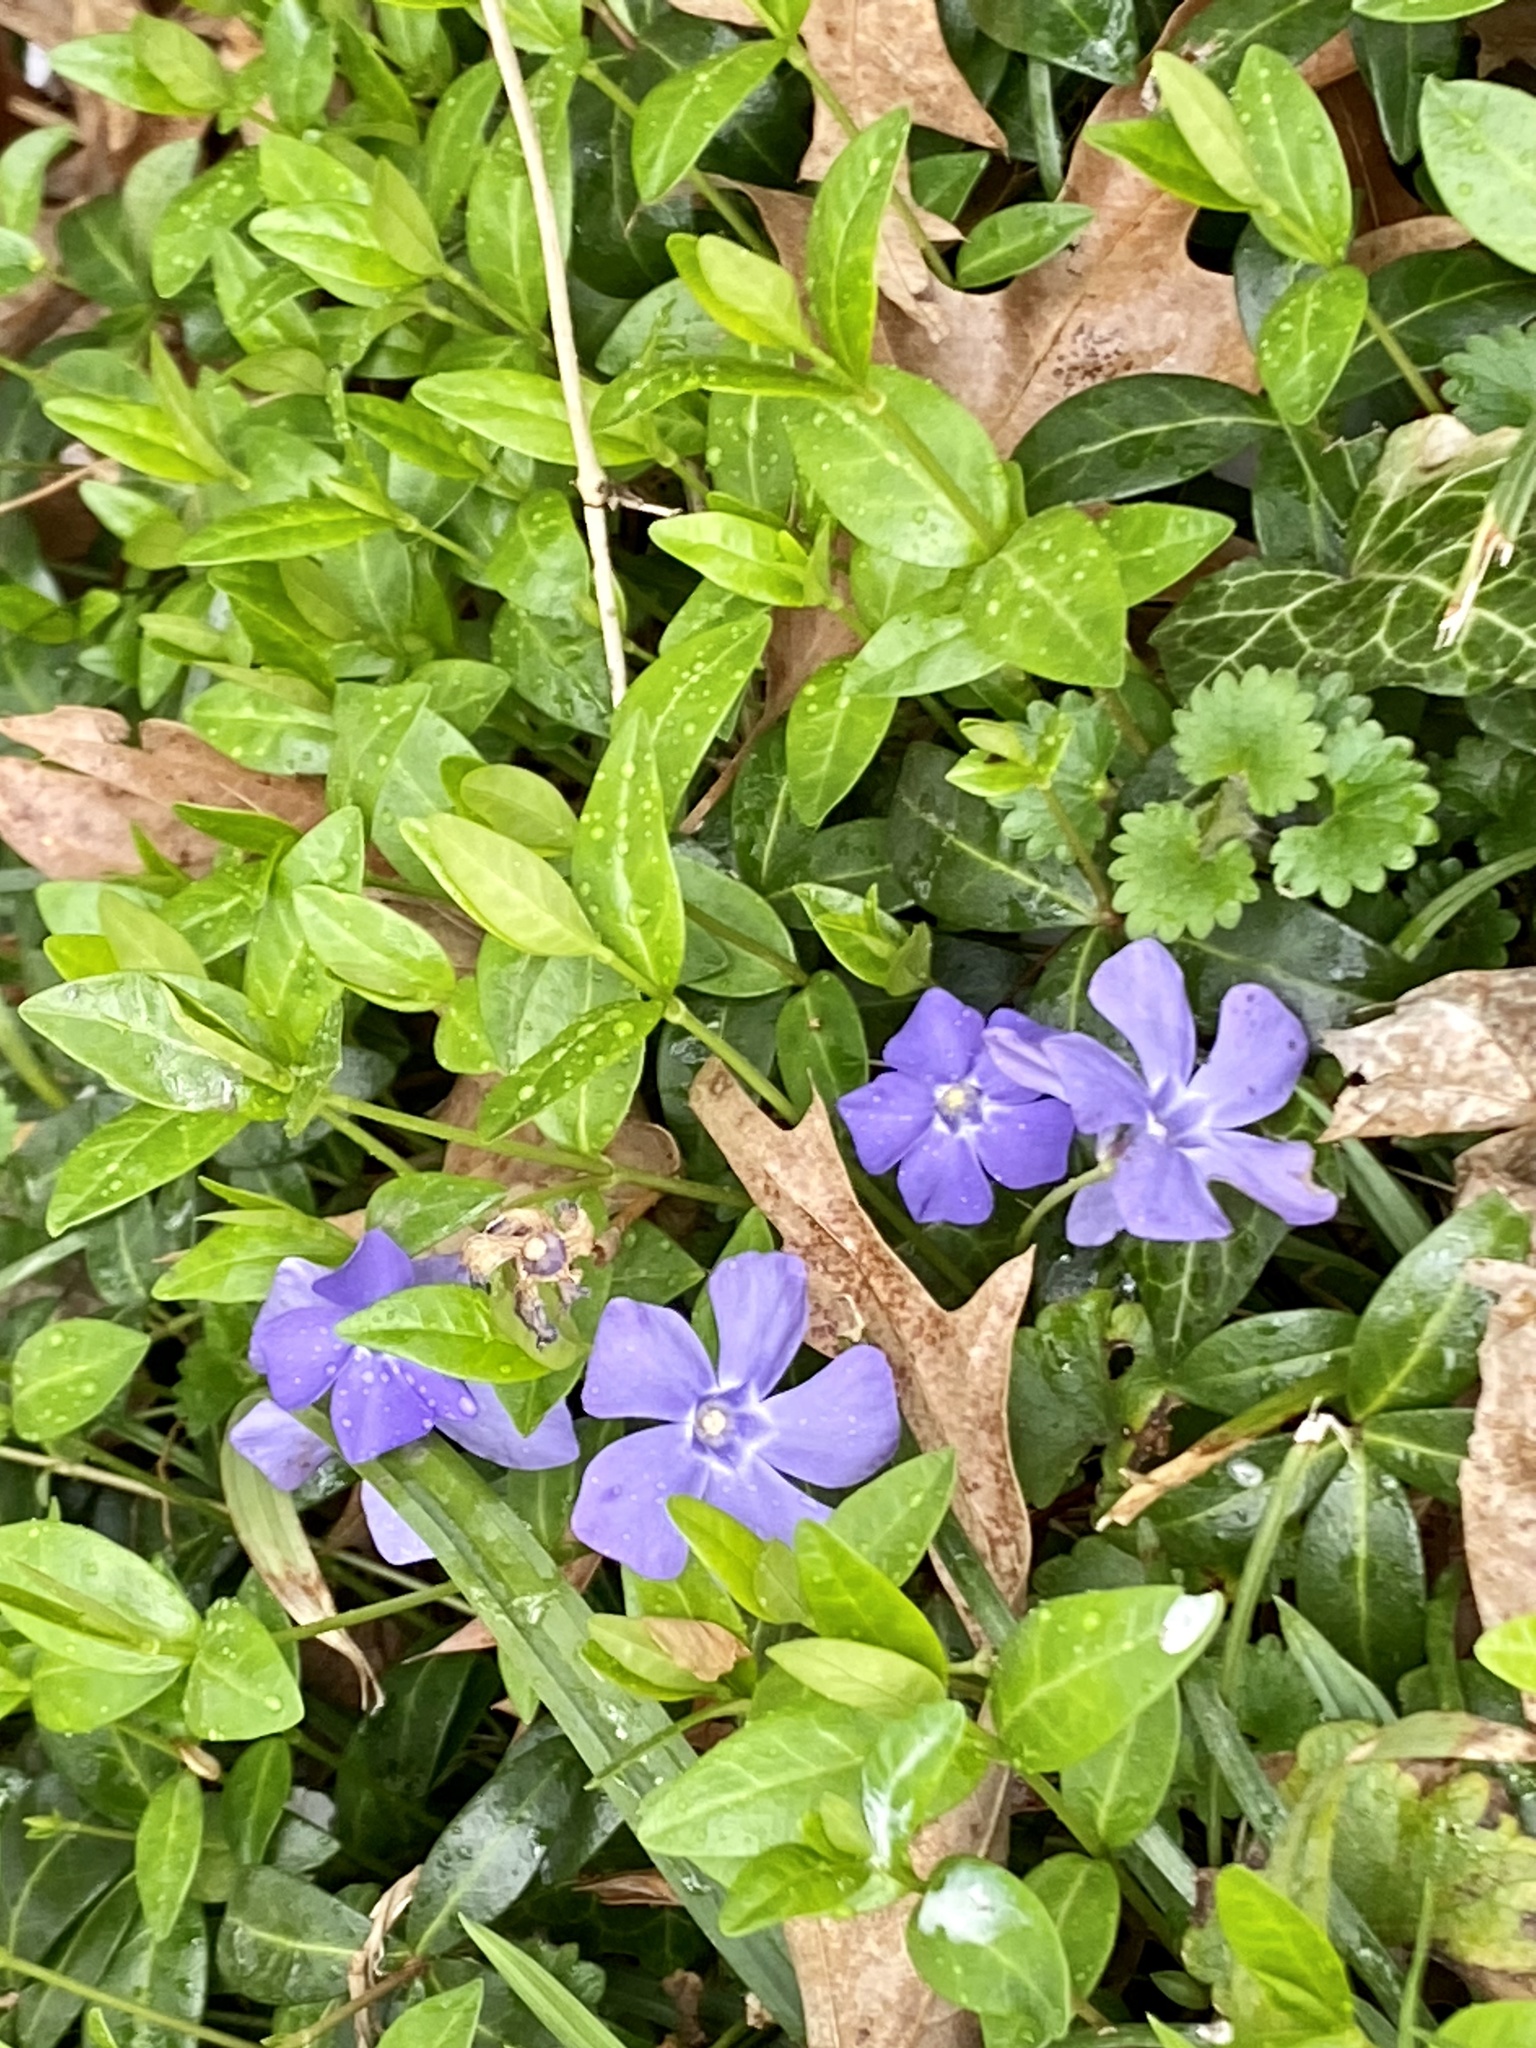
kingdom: Plantae
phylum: Tracheophyta
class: Magnoliopsida
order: Gentianales
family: Apocynaceae
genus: Vinca
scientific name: Vinca minor
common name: Lesser periwinkle
